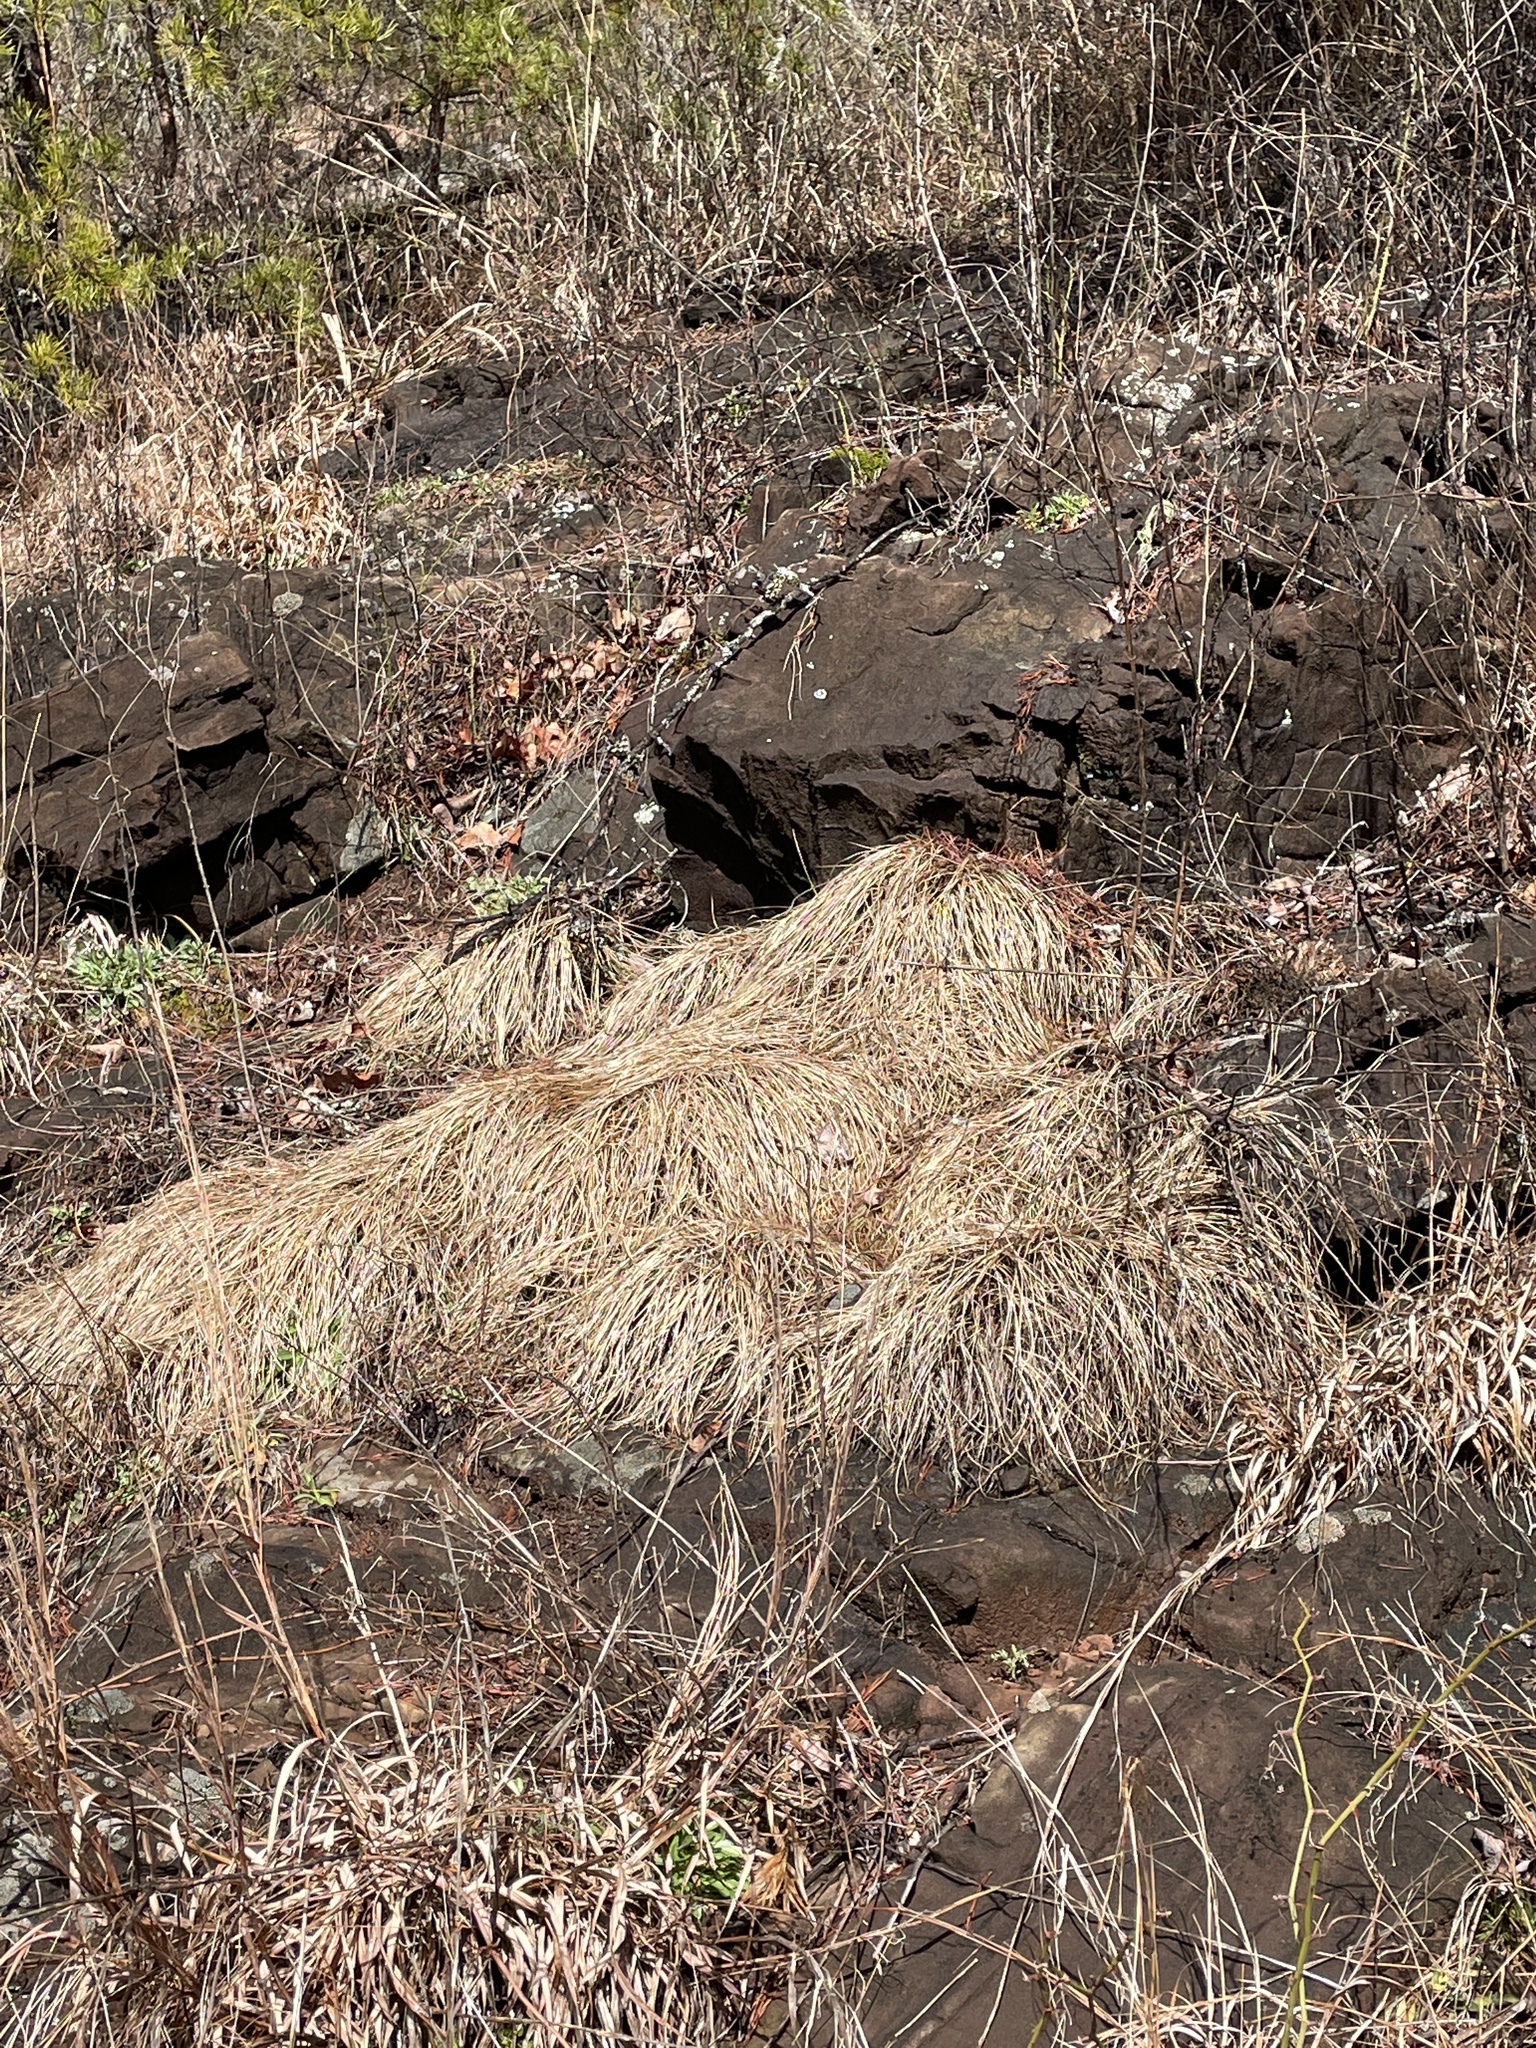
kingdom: Plantae
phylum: Tracheophyta
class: Liliopsida
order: Poales
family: Poaceae
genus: Sporobolus
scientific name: Sporobolus heterolepis
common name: Prairie dropseed
